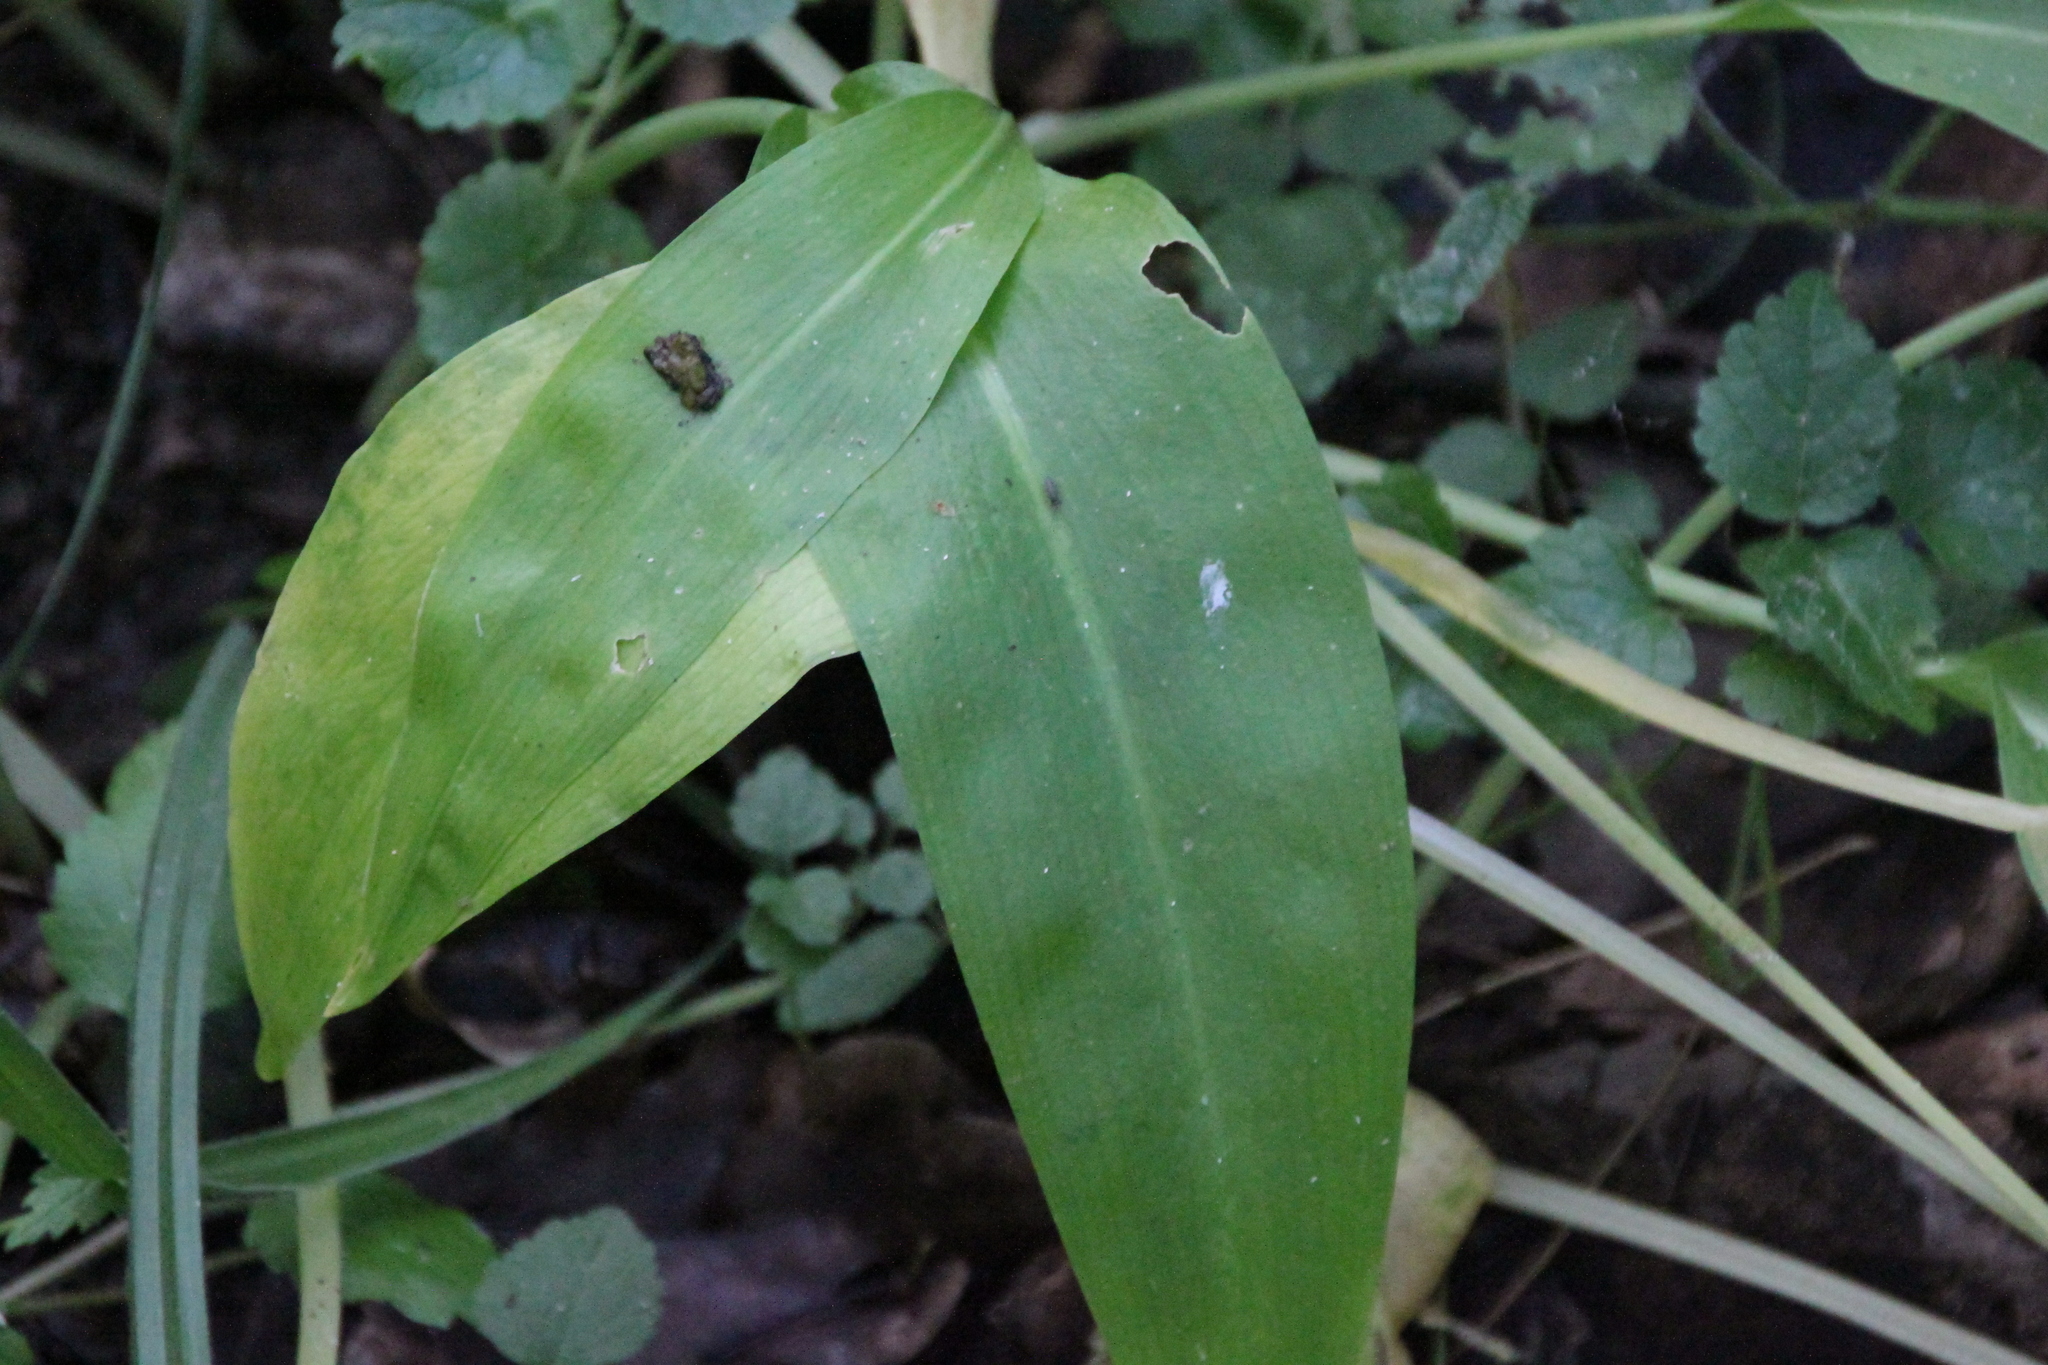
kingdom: Plantae
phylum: Tracheophyta
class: Liliopsida
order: Asparagales
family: Amaryllidaceae
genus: Allium
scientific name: Allium ursinum
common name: Ramsons
